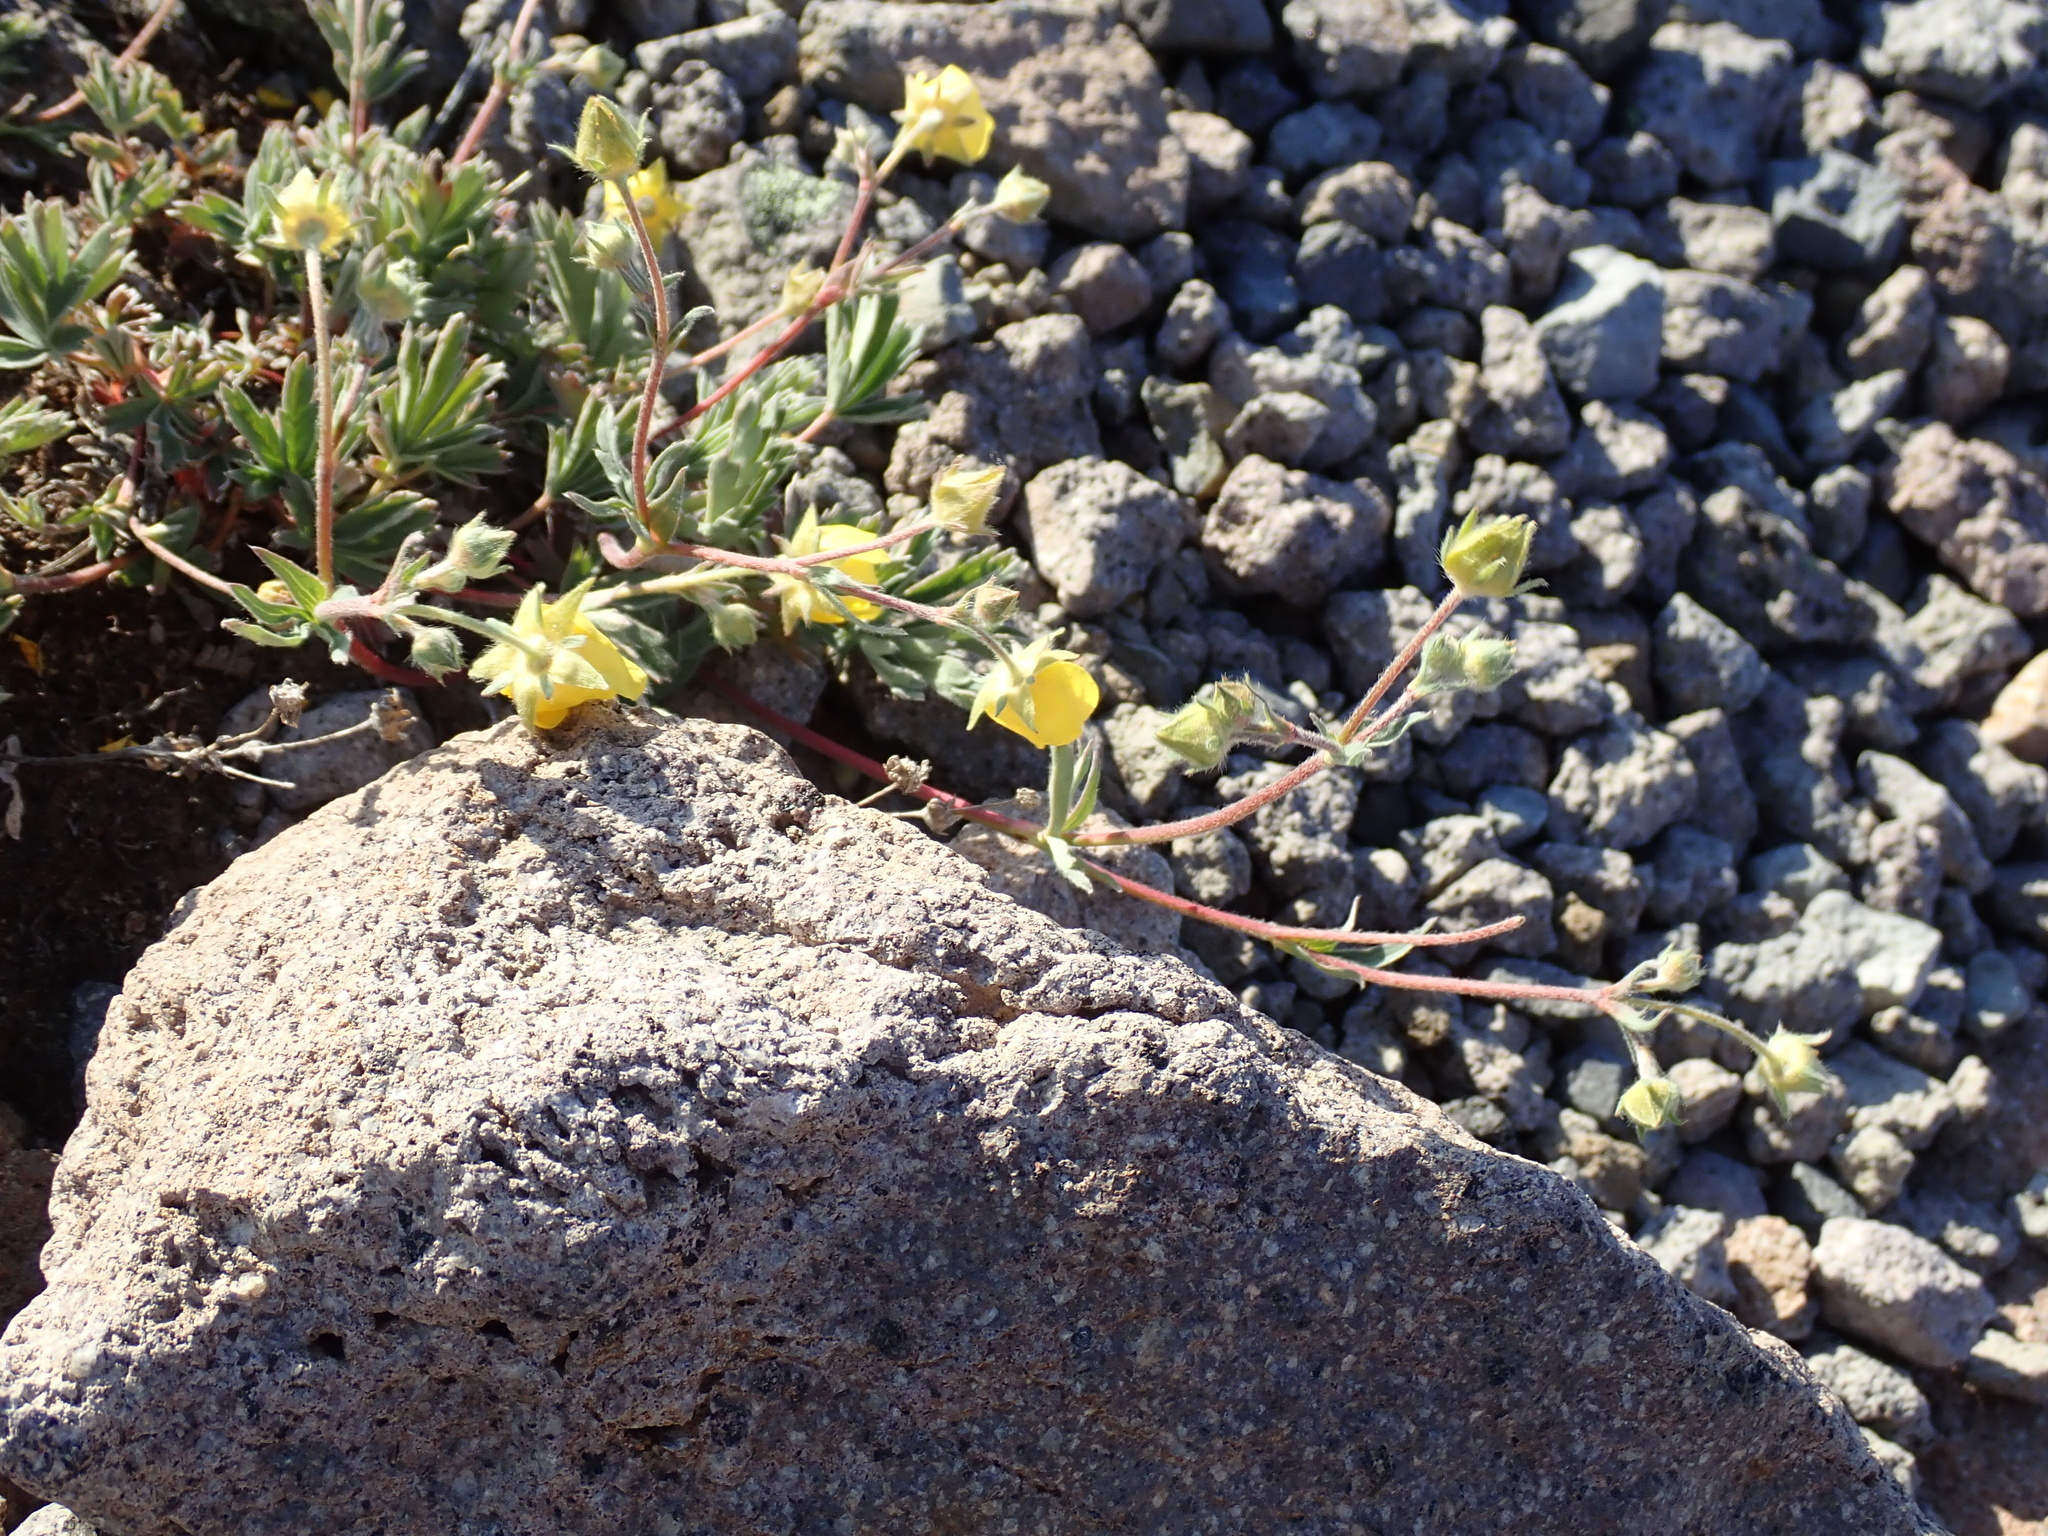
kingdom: Plantae
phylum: Tracheophyta
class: Magnoliopsida
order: Rosales
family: Rosaceae
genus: Dasiphora
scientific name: Dasiphora fruticosa
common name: Shrubby cinquefoil
